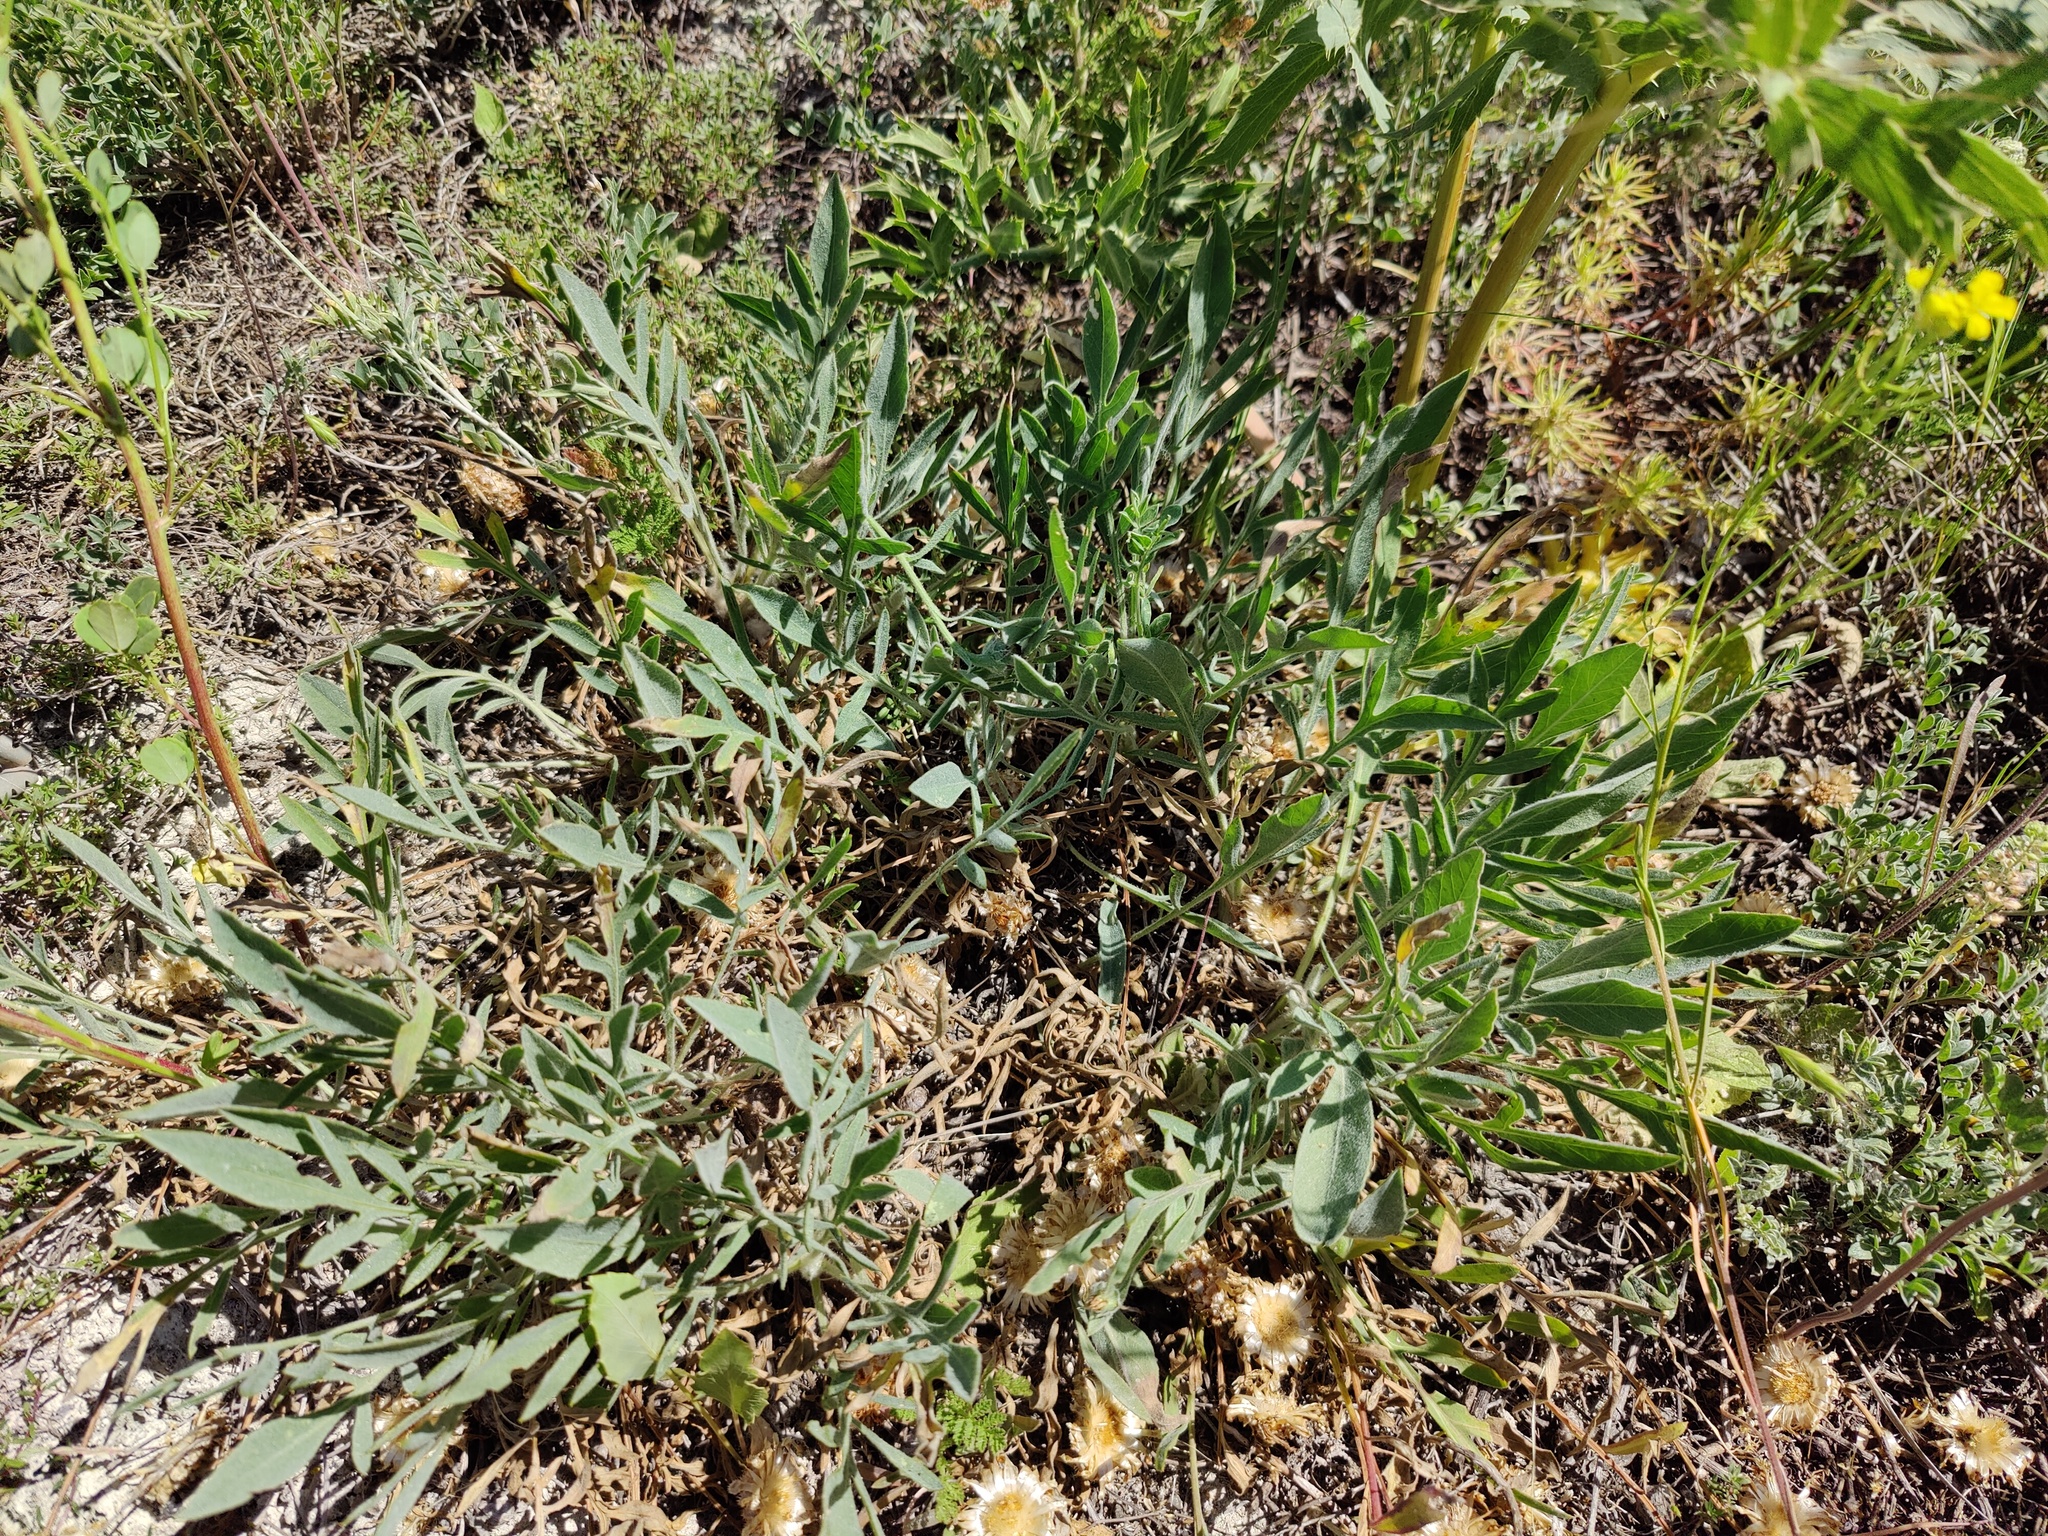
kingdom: Plantae
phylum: Tracheophyta
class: Magnoliopsida
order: Asterales
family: Asteraceae
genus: Psephellus
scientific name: Psephellus marschallianus
